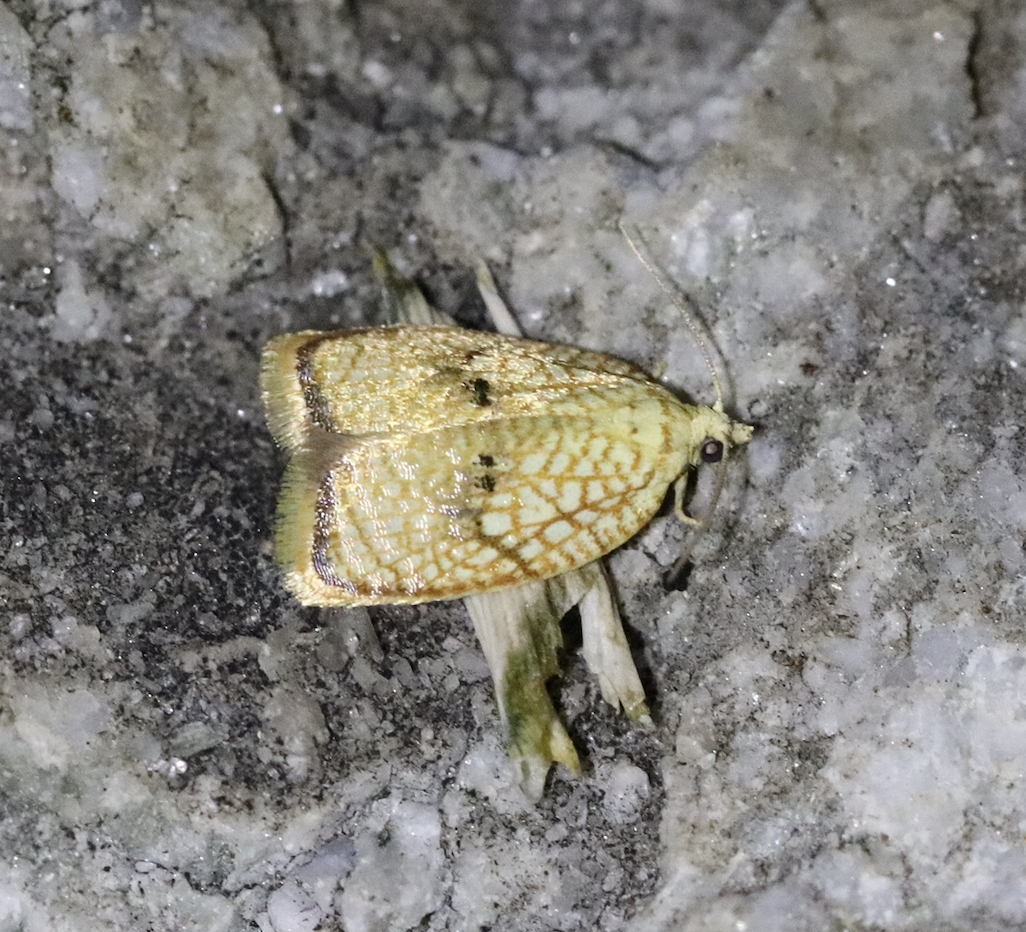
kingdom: Animalia
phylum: Arthropoda
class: Insecta
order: Lepidoptera
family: Tortricidae
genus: Acleris
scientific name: Acleris forsskaleana
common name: Maple button
